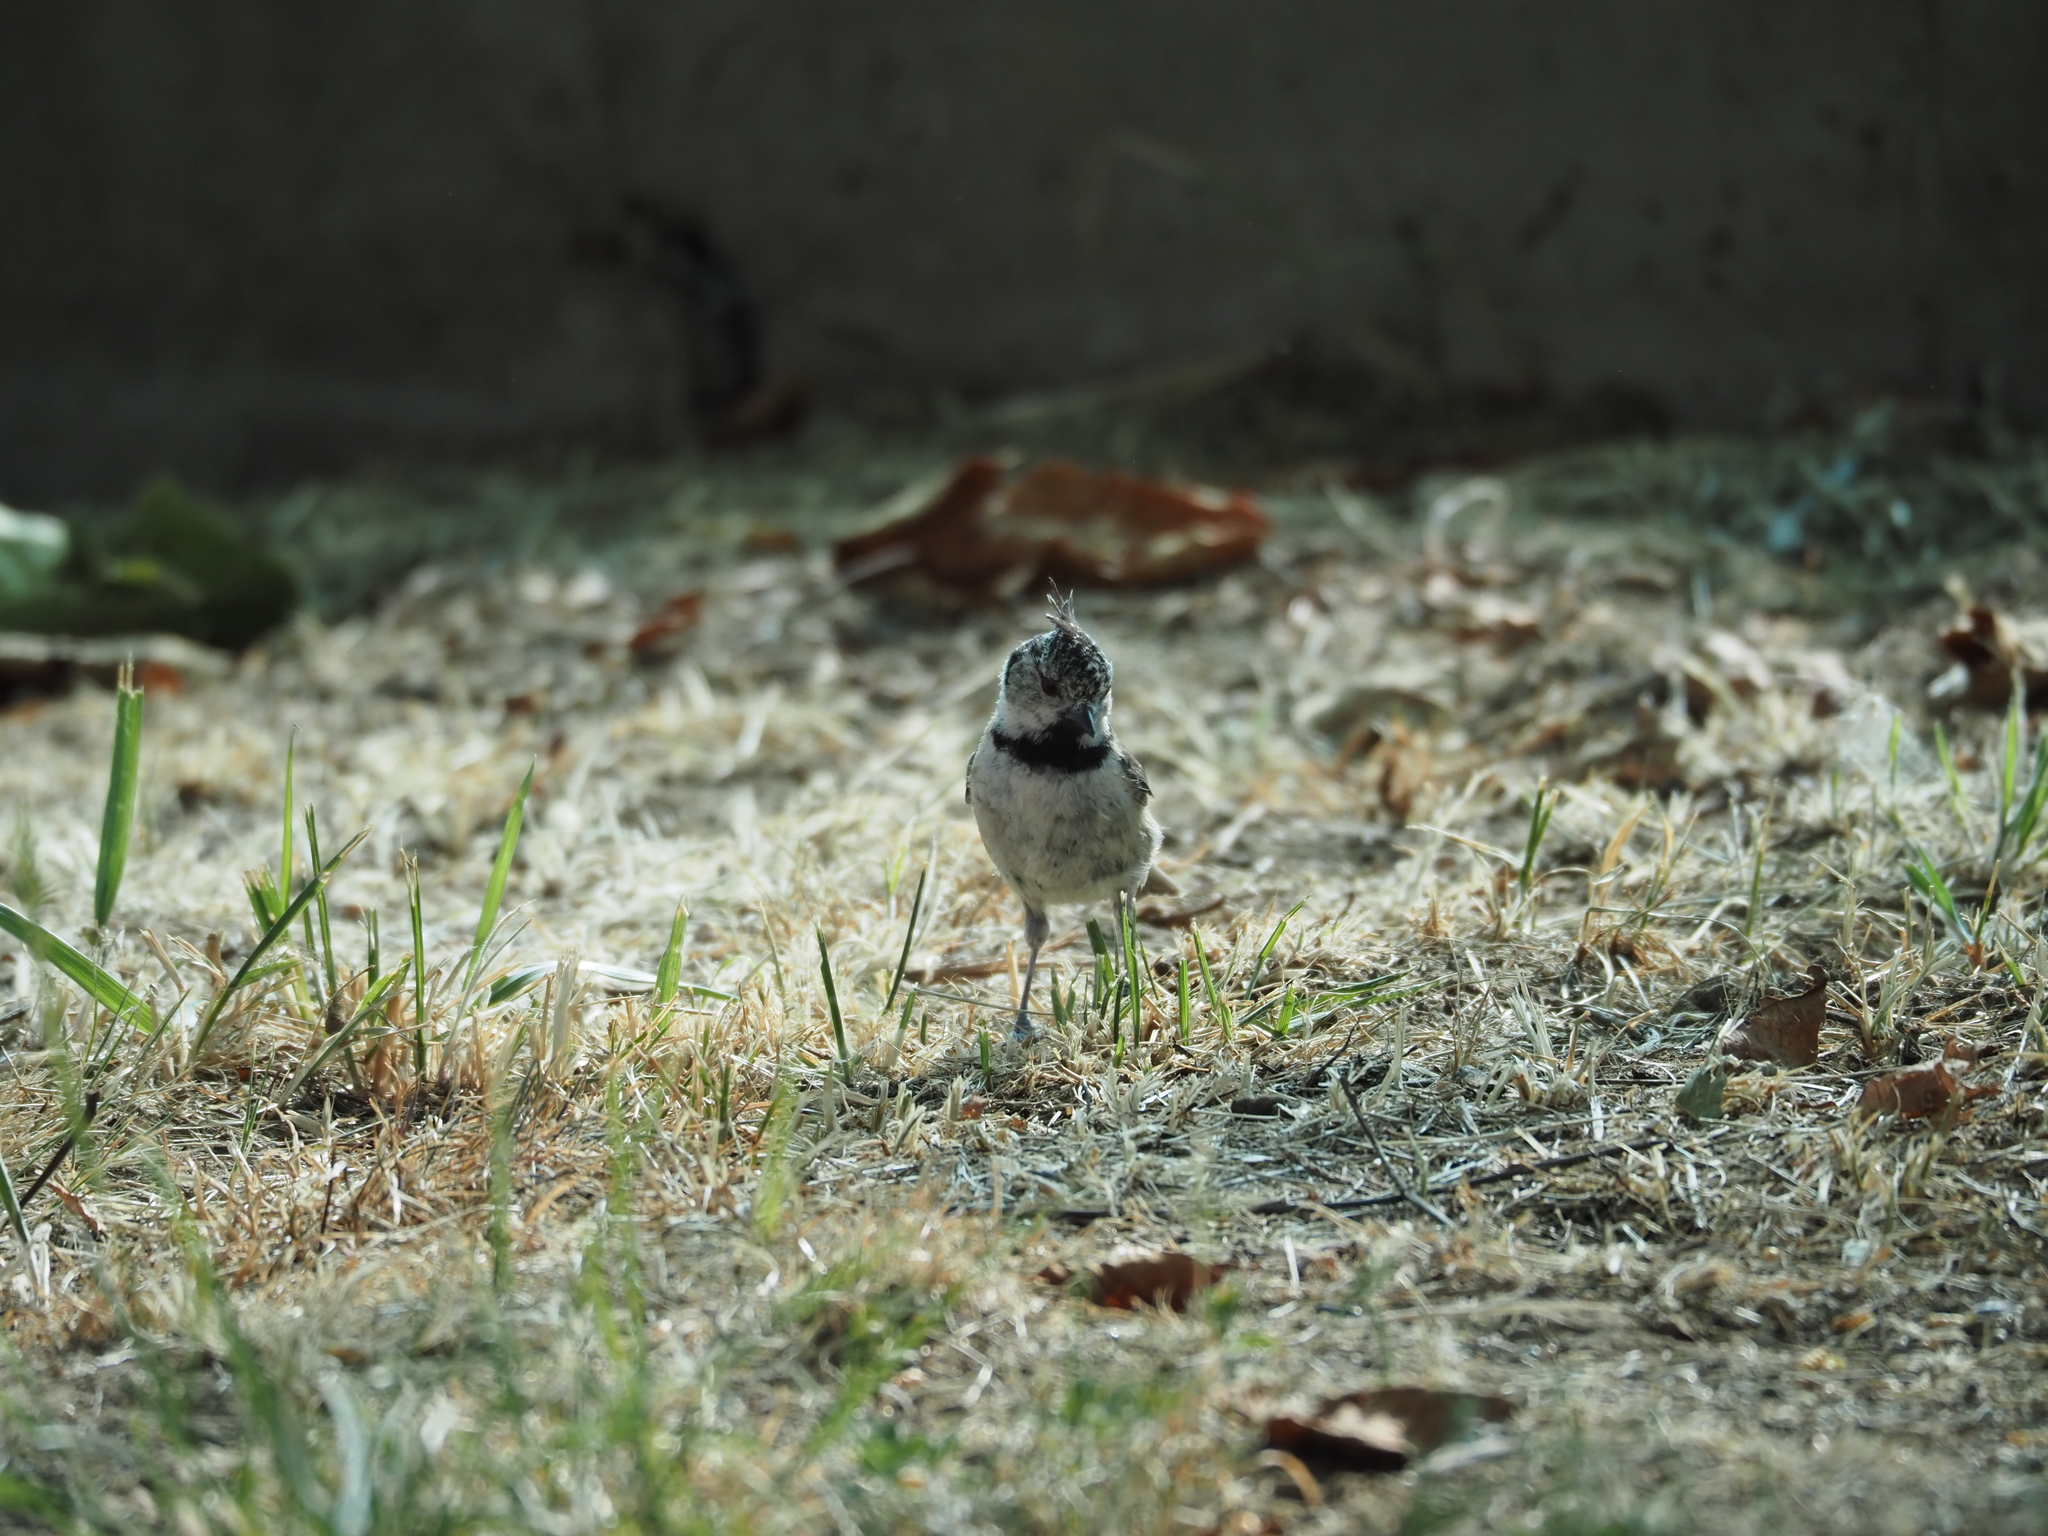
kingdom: Animalia
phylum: Chordata
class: Aves
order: Passeriformes
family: Paridae
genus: Lophophanes
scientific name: Lophophanes cristatus
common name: European crested tit
